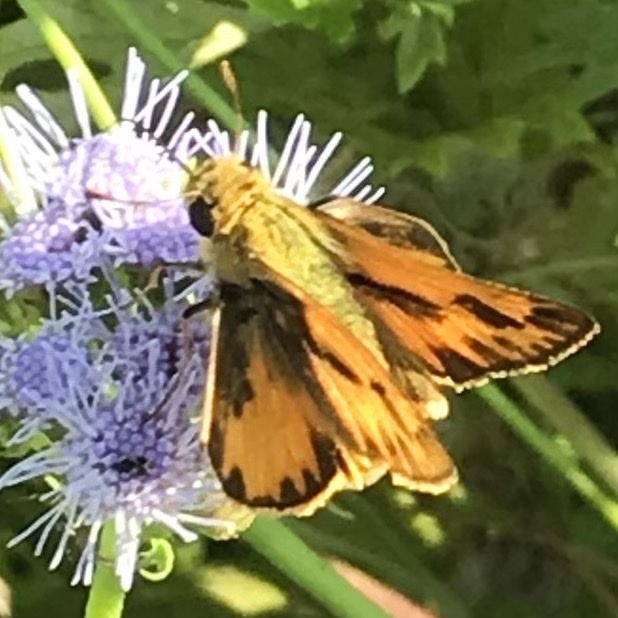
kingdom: Animalia
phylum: Arthropoda
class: Insecta
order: Lepidoptera
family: Hesperiidae
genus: Hylephila
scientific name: Hylephila phyleus
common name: Fiery skipper
